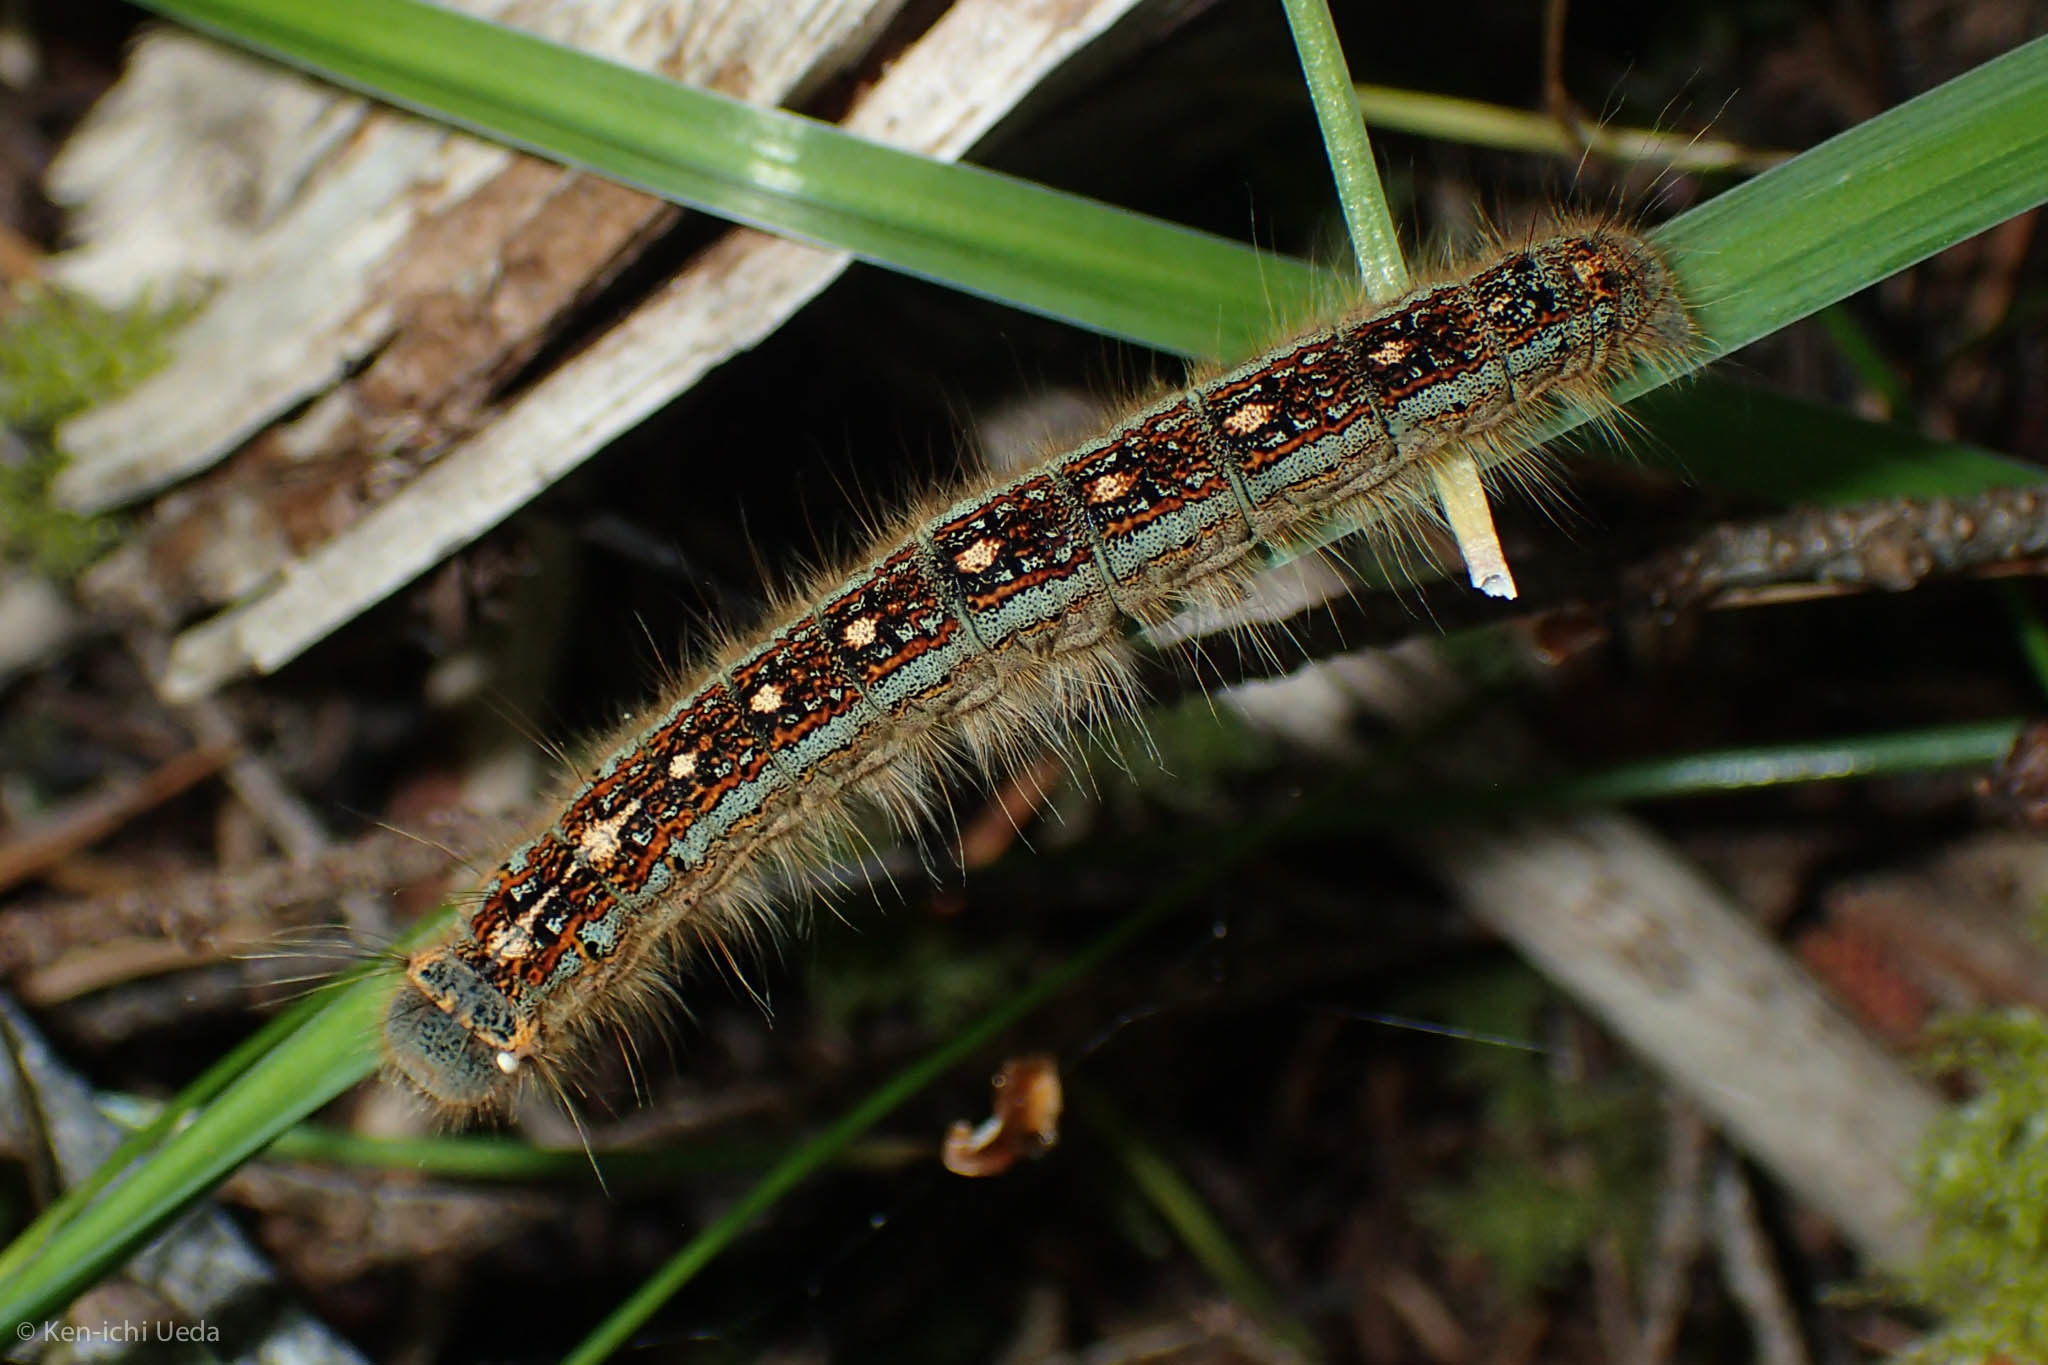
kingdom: Animalia
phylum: Arthropoda
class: Insecta
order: Lepidoptera
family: Lasiocampidae
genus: Malacosoma
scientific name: Malacosoma disstria
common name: Forest tent caterpillar
